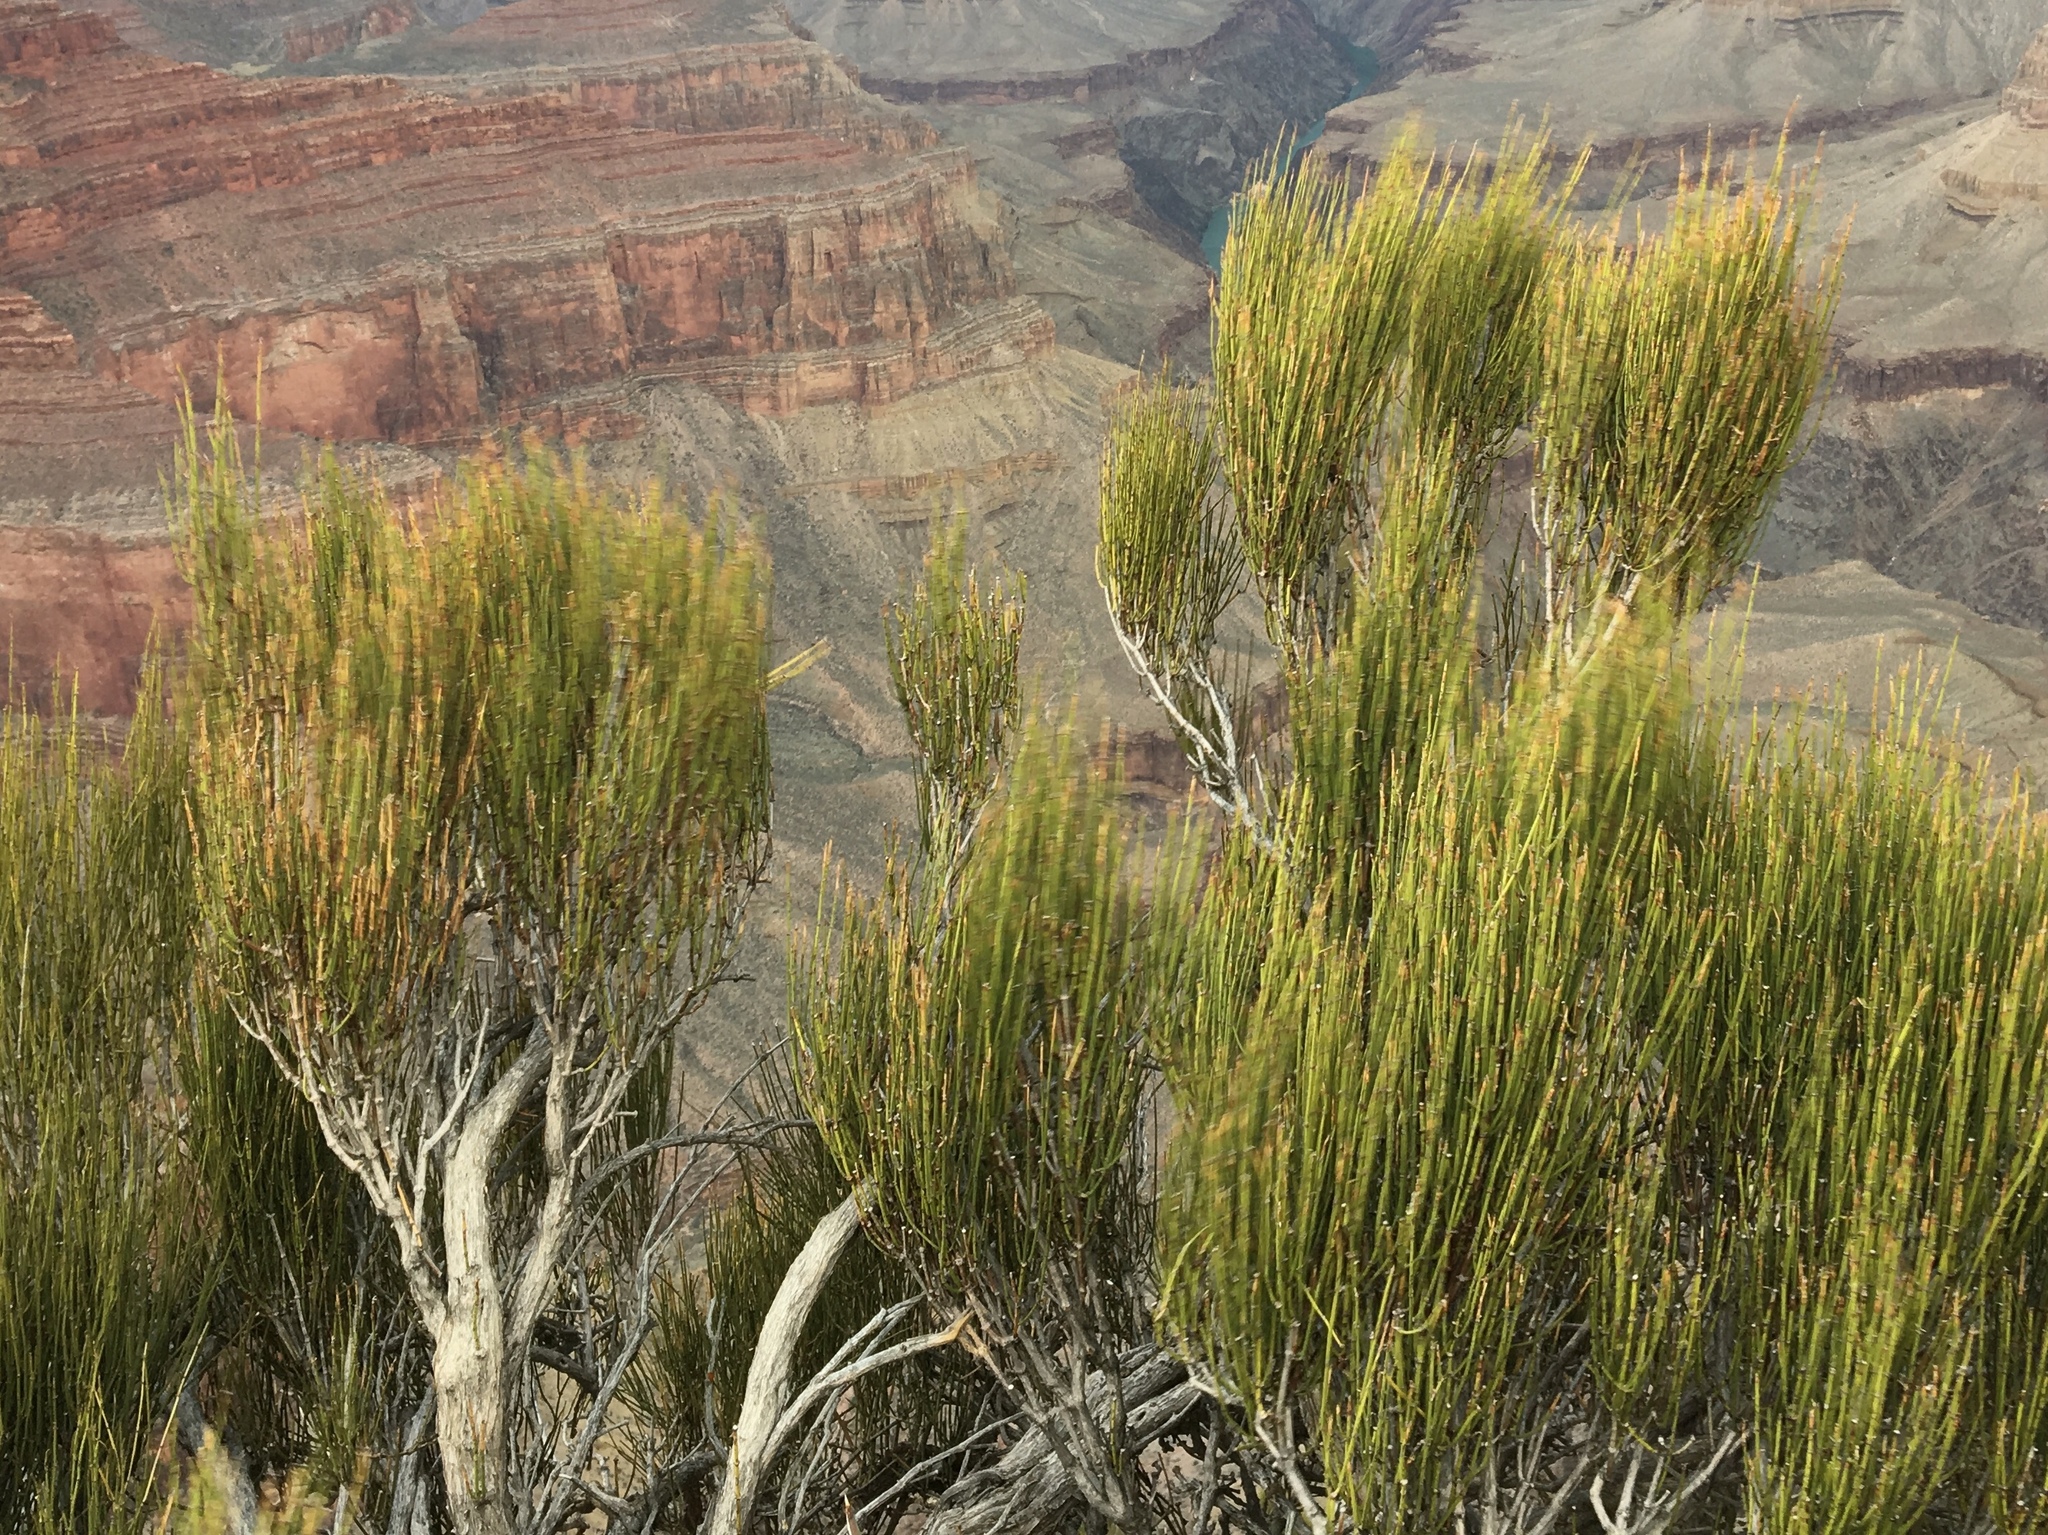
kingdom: Plantae
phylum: Tracheophyta
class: Gnetopsida
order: Ephedrales
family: Ephedraceae
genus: Ephedra
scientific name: Ephedra viridis
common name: Green ephedra
